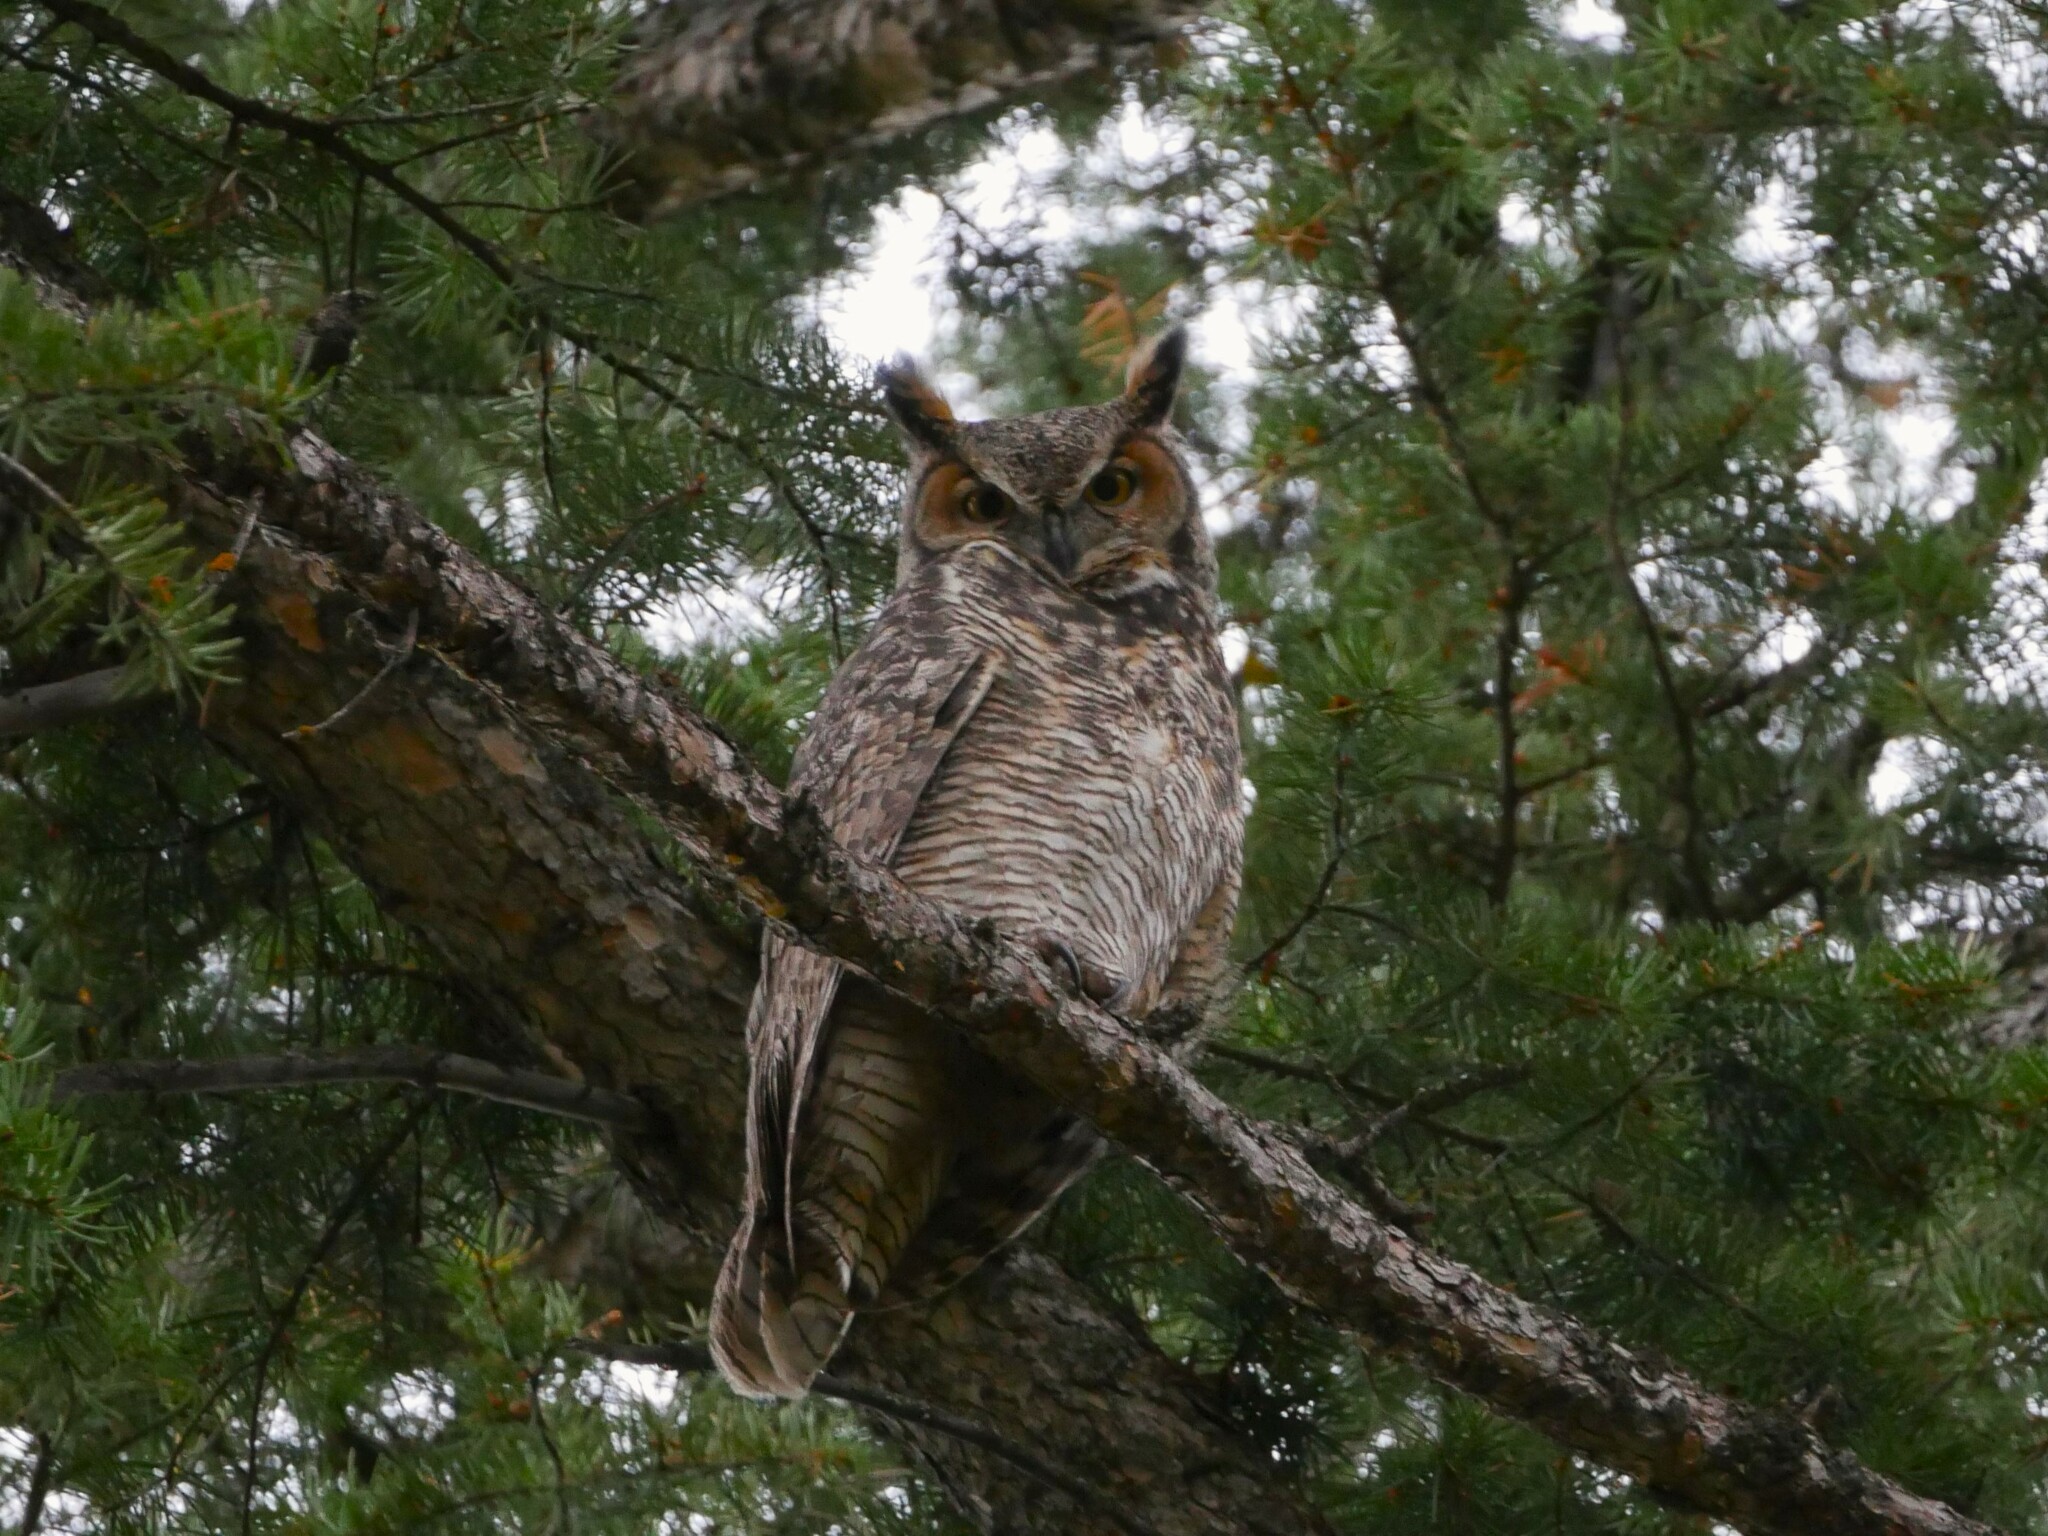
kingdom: Animalia
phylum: Chordata
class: Aves
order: Strigiformes
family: Strigidae
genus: Bubo
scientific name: Bubo virginianus
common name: Great horned owl
